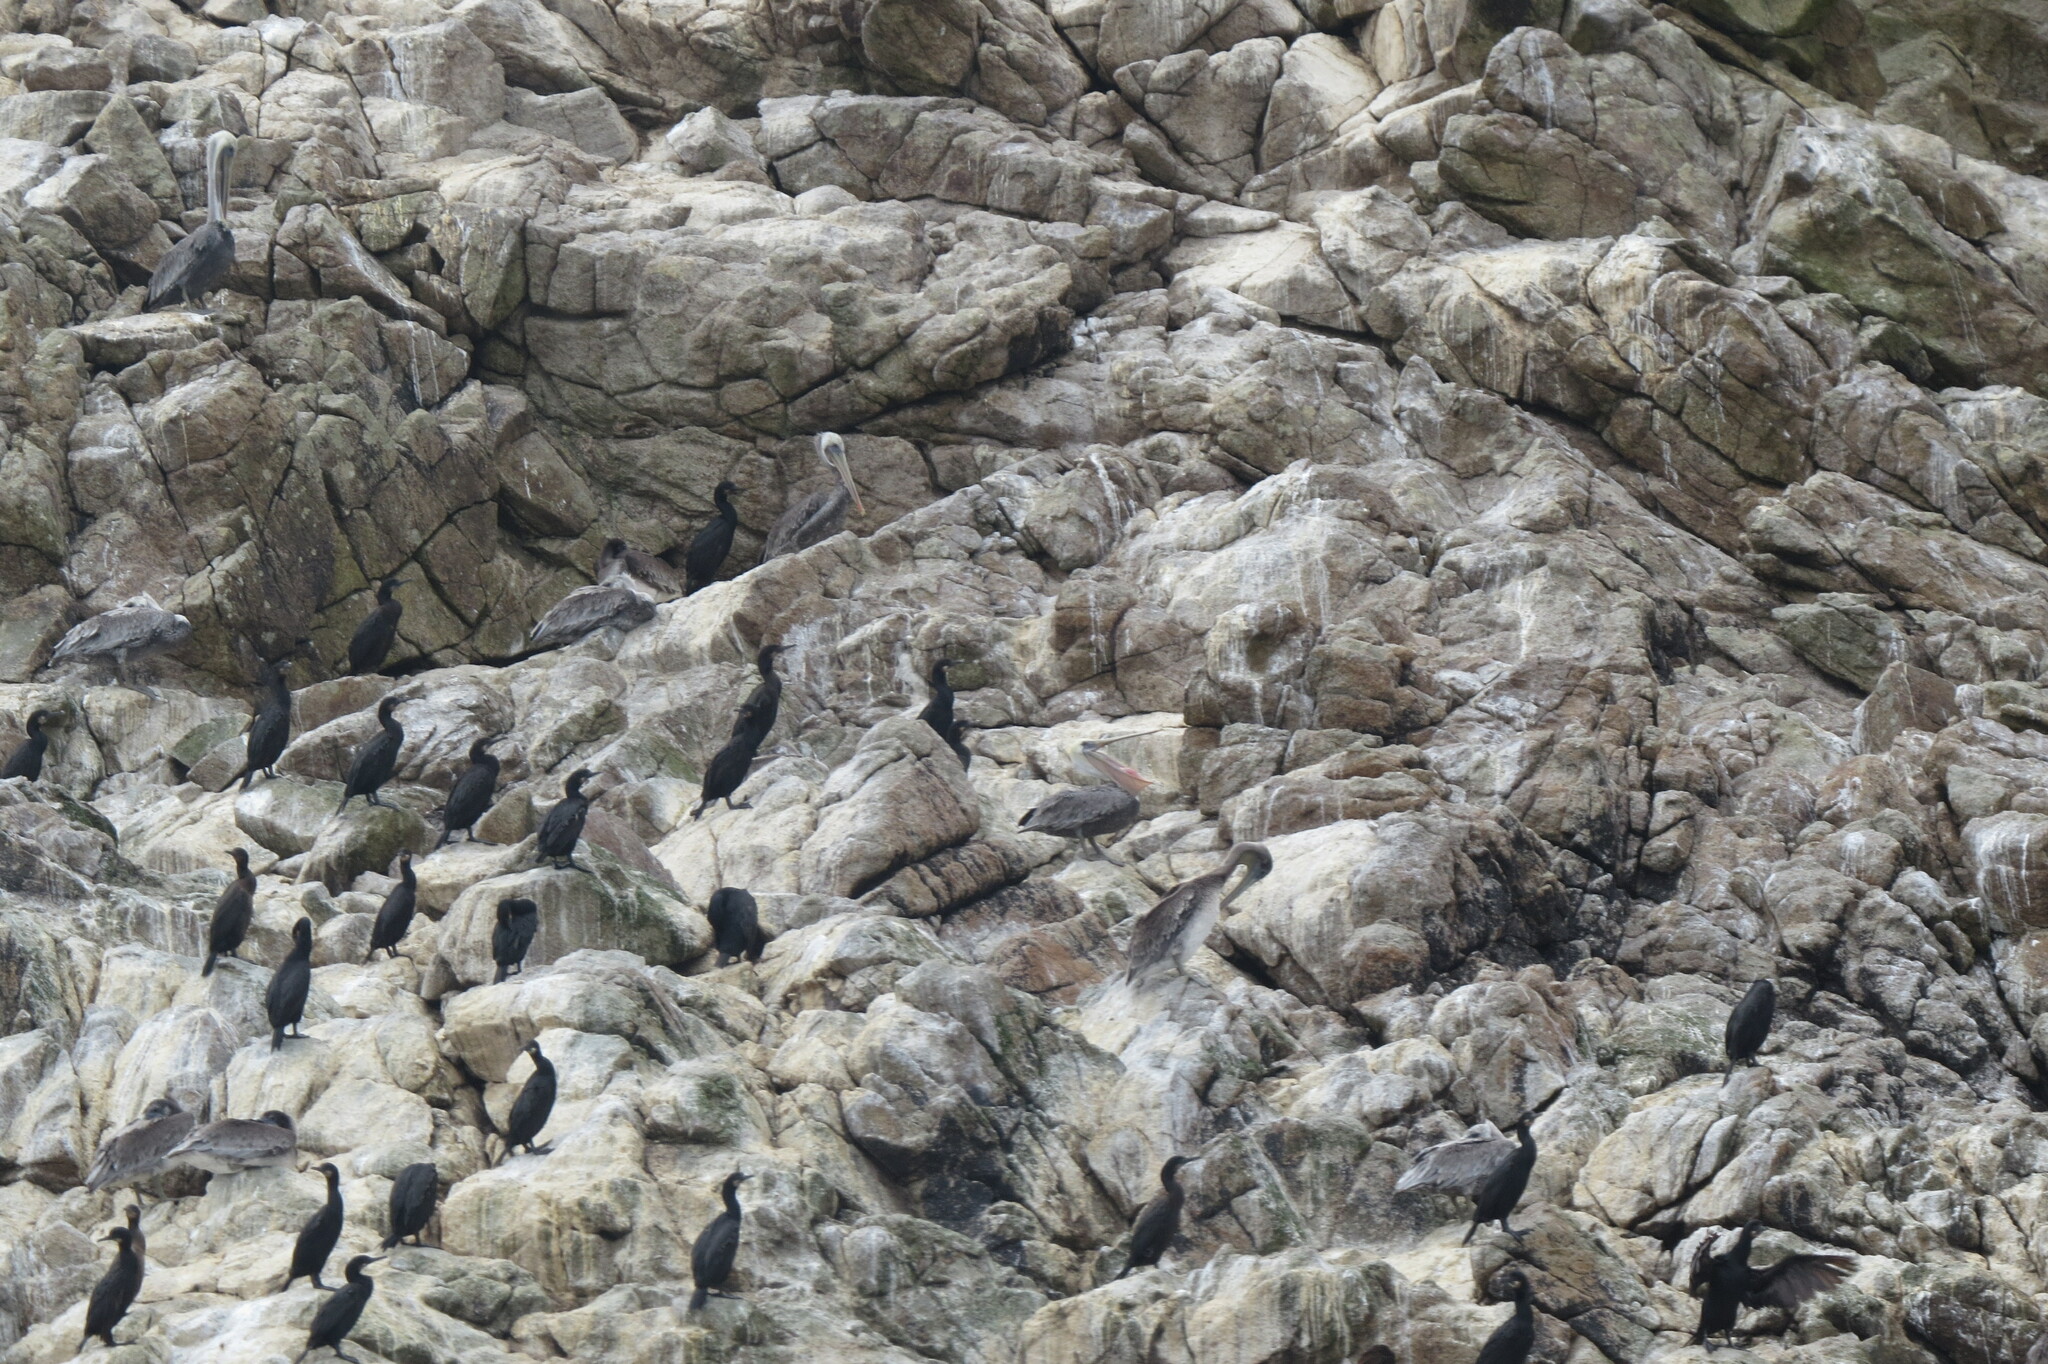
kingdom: Animalia
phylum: Chordata
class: Aves
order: Suliformes
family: Phalacrocoracidae
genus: Urile
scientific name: Urile penicillatus
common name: Brandt's cormorant
